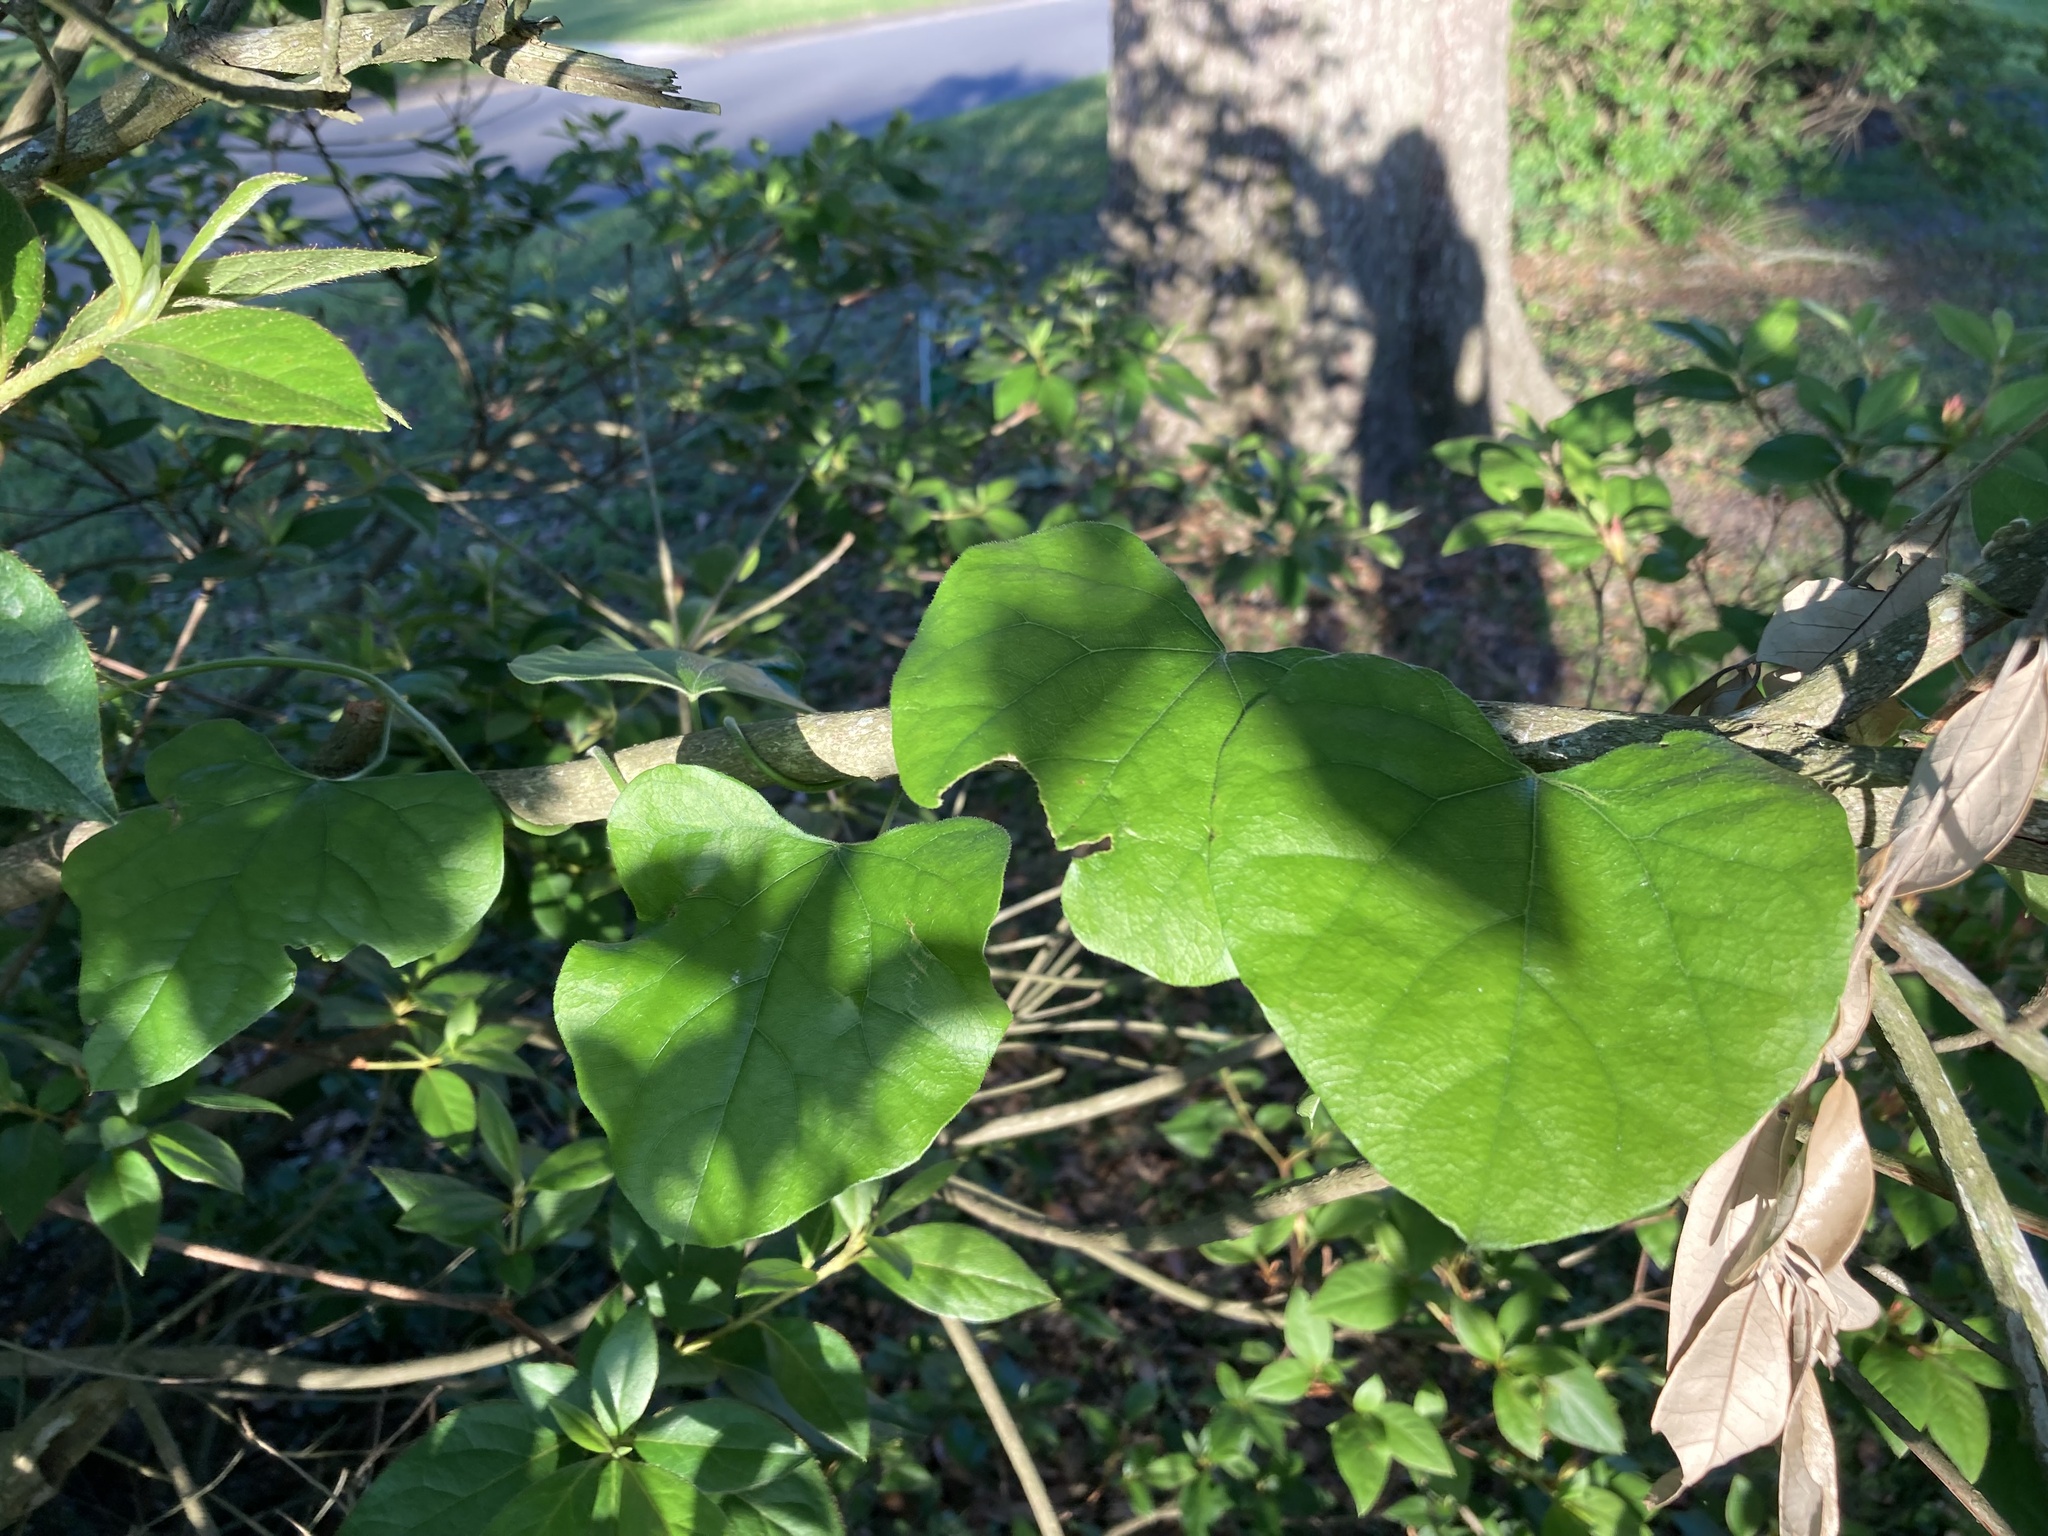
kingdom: Plantae
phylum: Tracheophyta
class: Magnoliopsida
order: Ranunculales
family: Menispermaceae
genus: Cocculus
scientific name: Cocculus carolinus
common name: Carolina moonseed
